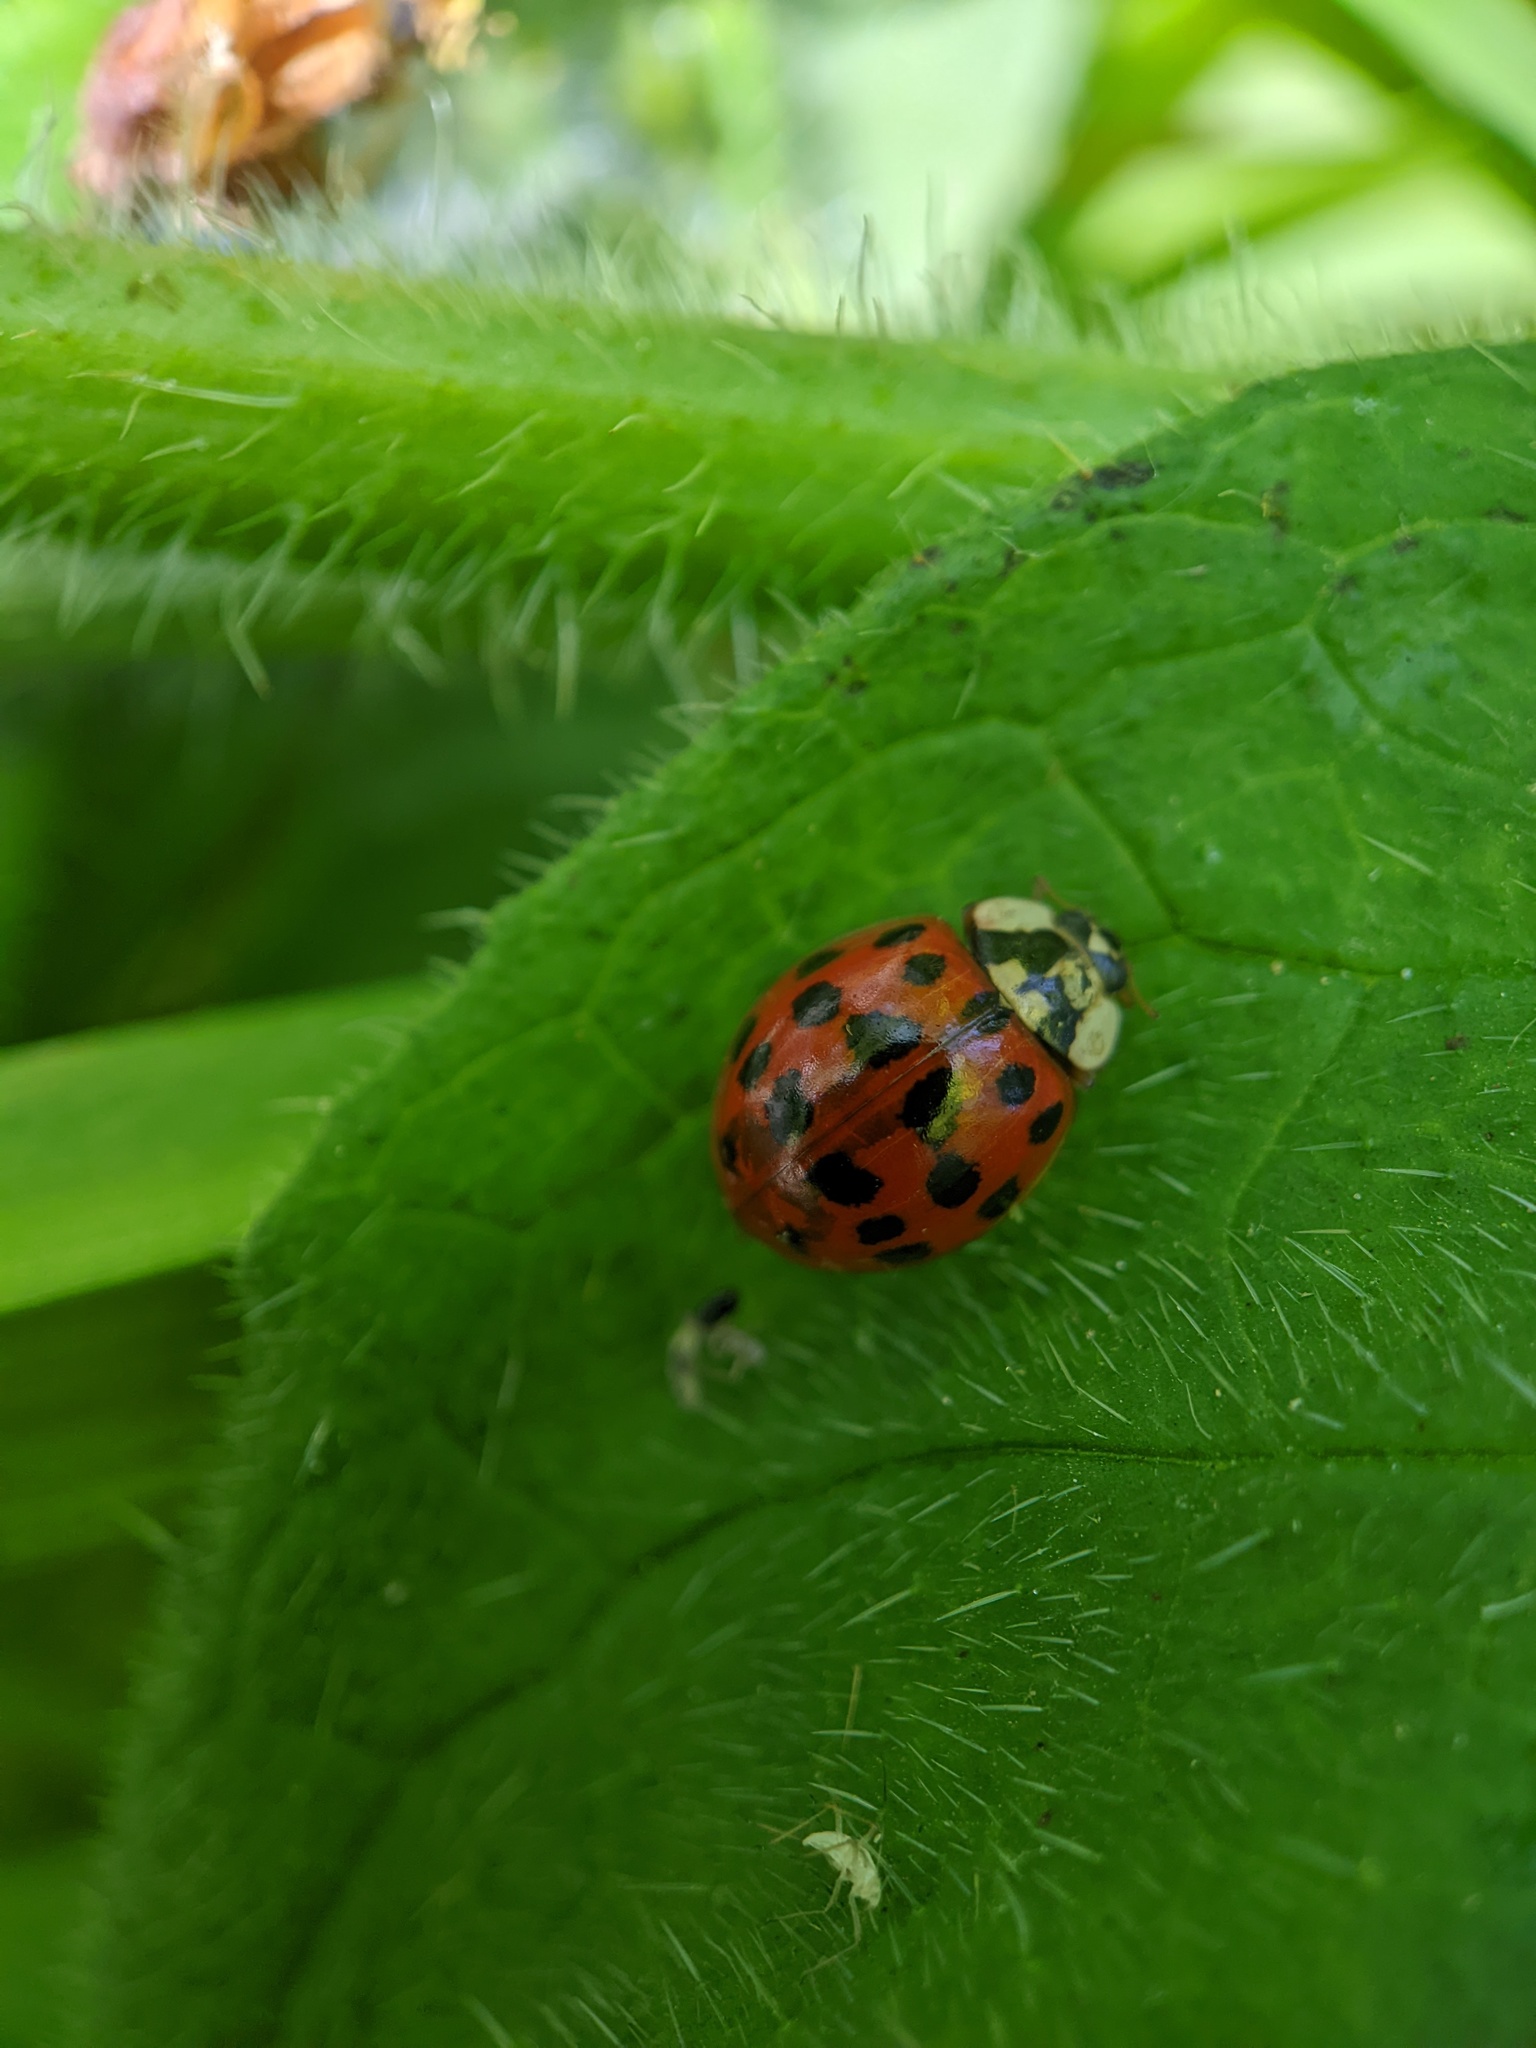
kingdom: Animalia
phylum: Arthropoda
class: Insecta
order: Coleoptera
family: Coccinellidae
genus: Harmonia
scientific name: Harmonia axyridis
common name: Harlequin ladybird
